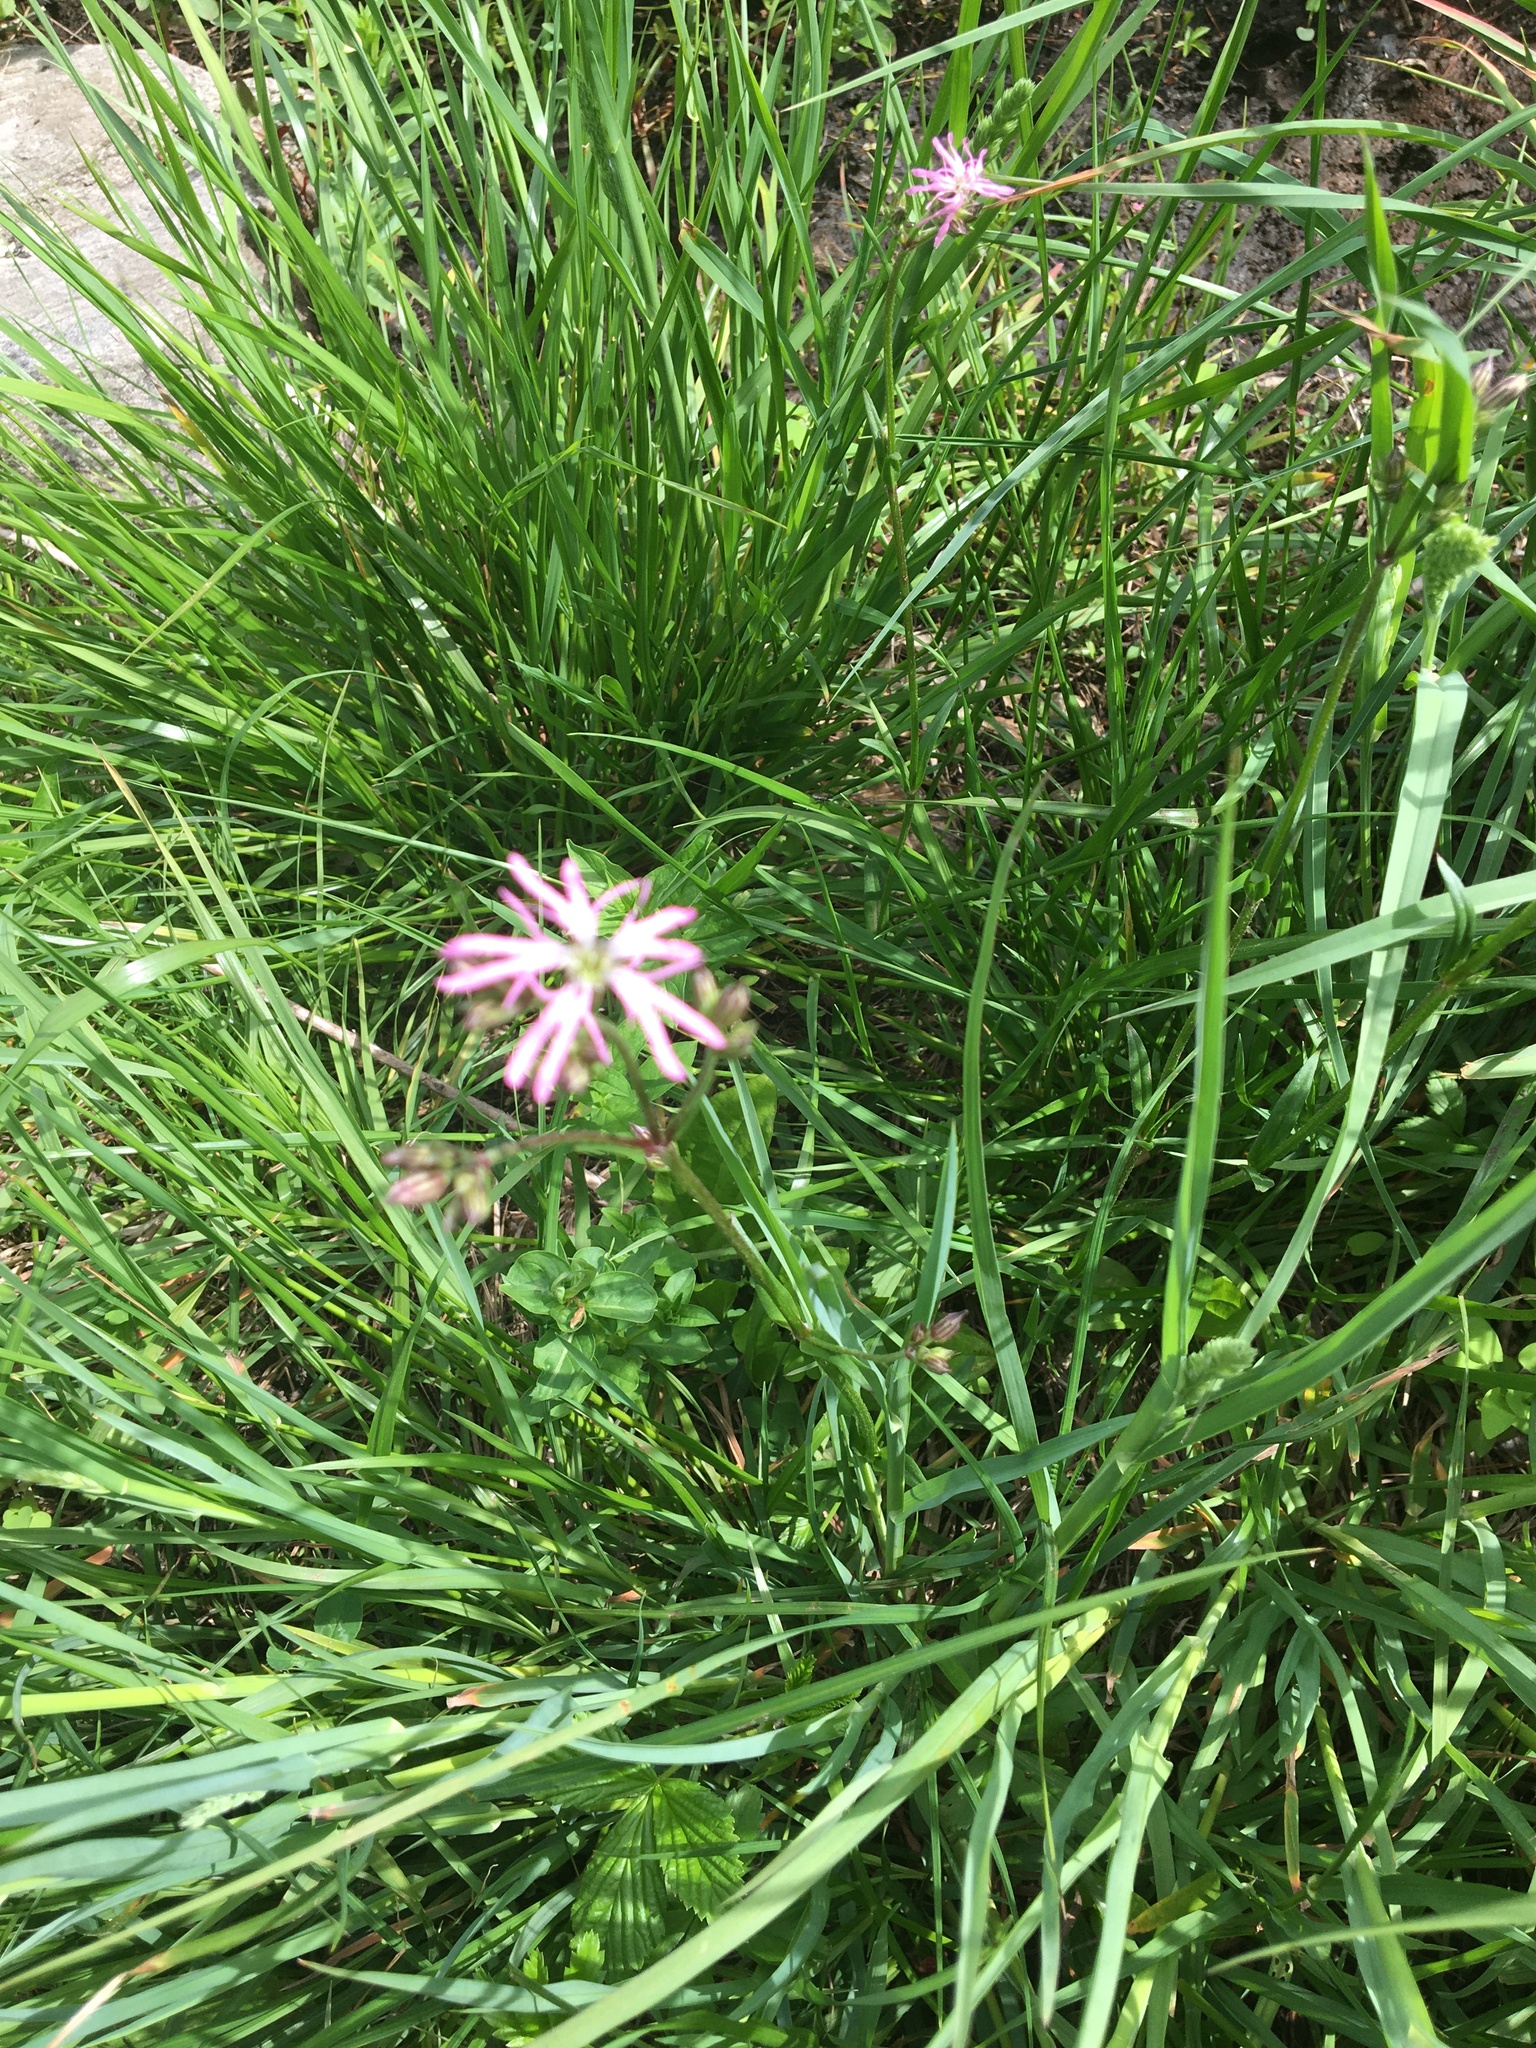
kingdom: Plantae
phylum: Tracheophyta
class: Magnoliopsida
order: Caryophyllales
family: Caryophyllaceae
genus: Silene
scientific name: Silene flos-cuculi
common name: Ragged-robin
